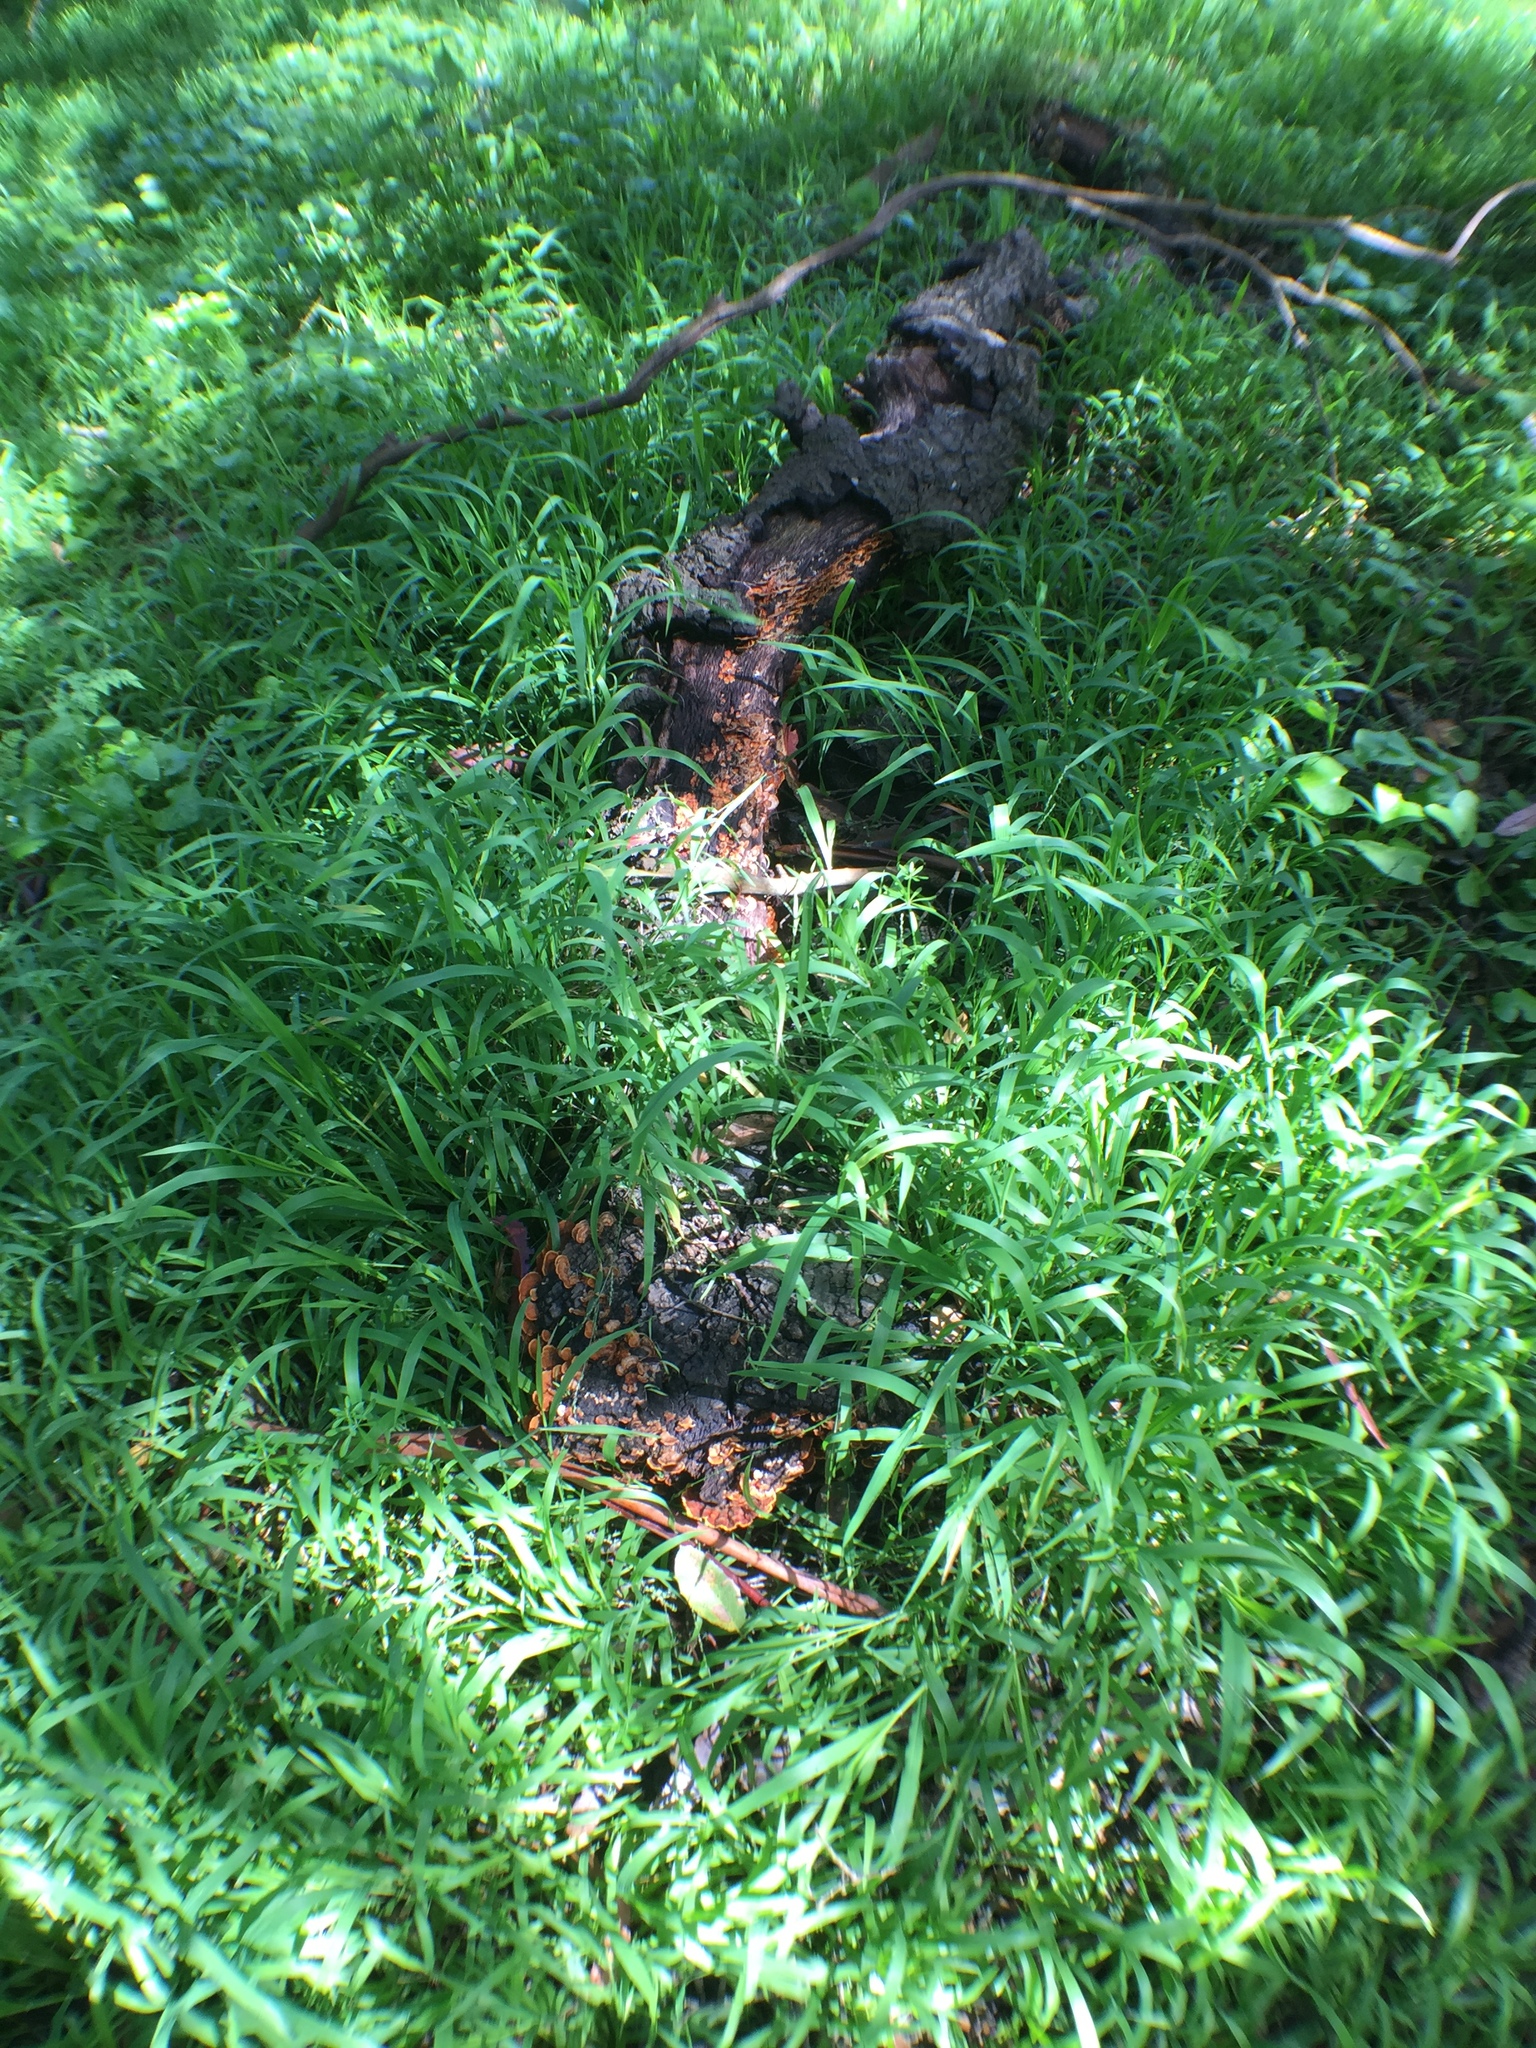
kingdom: Fungi
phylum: Basidiomycota
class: Agaricomycetes
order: Russulales
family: Stereaceae
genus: Stereum
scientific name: Stereum hirsutum
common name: Hairy curtain crust
